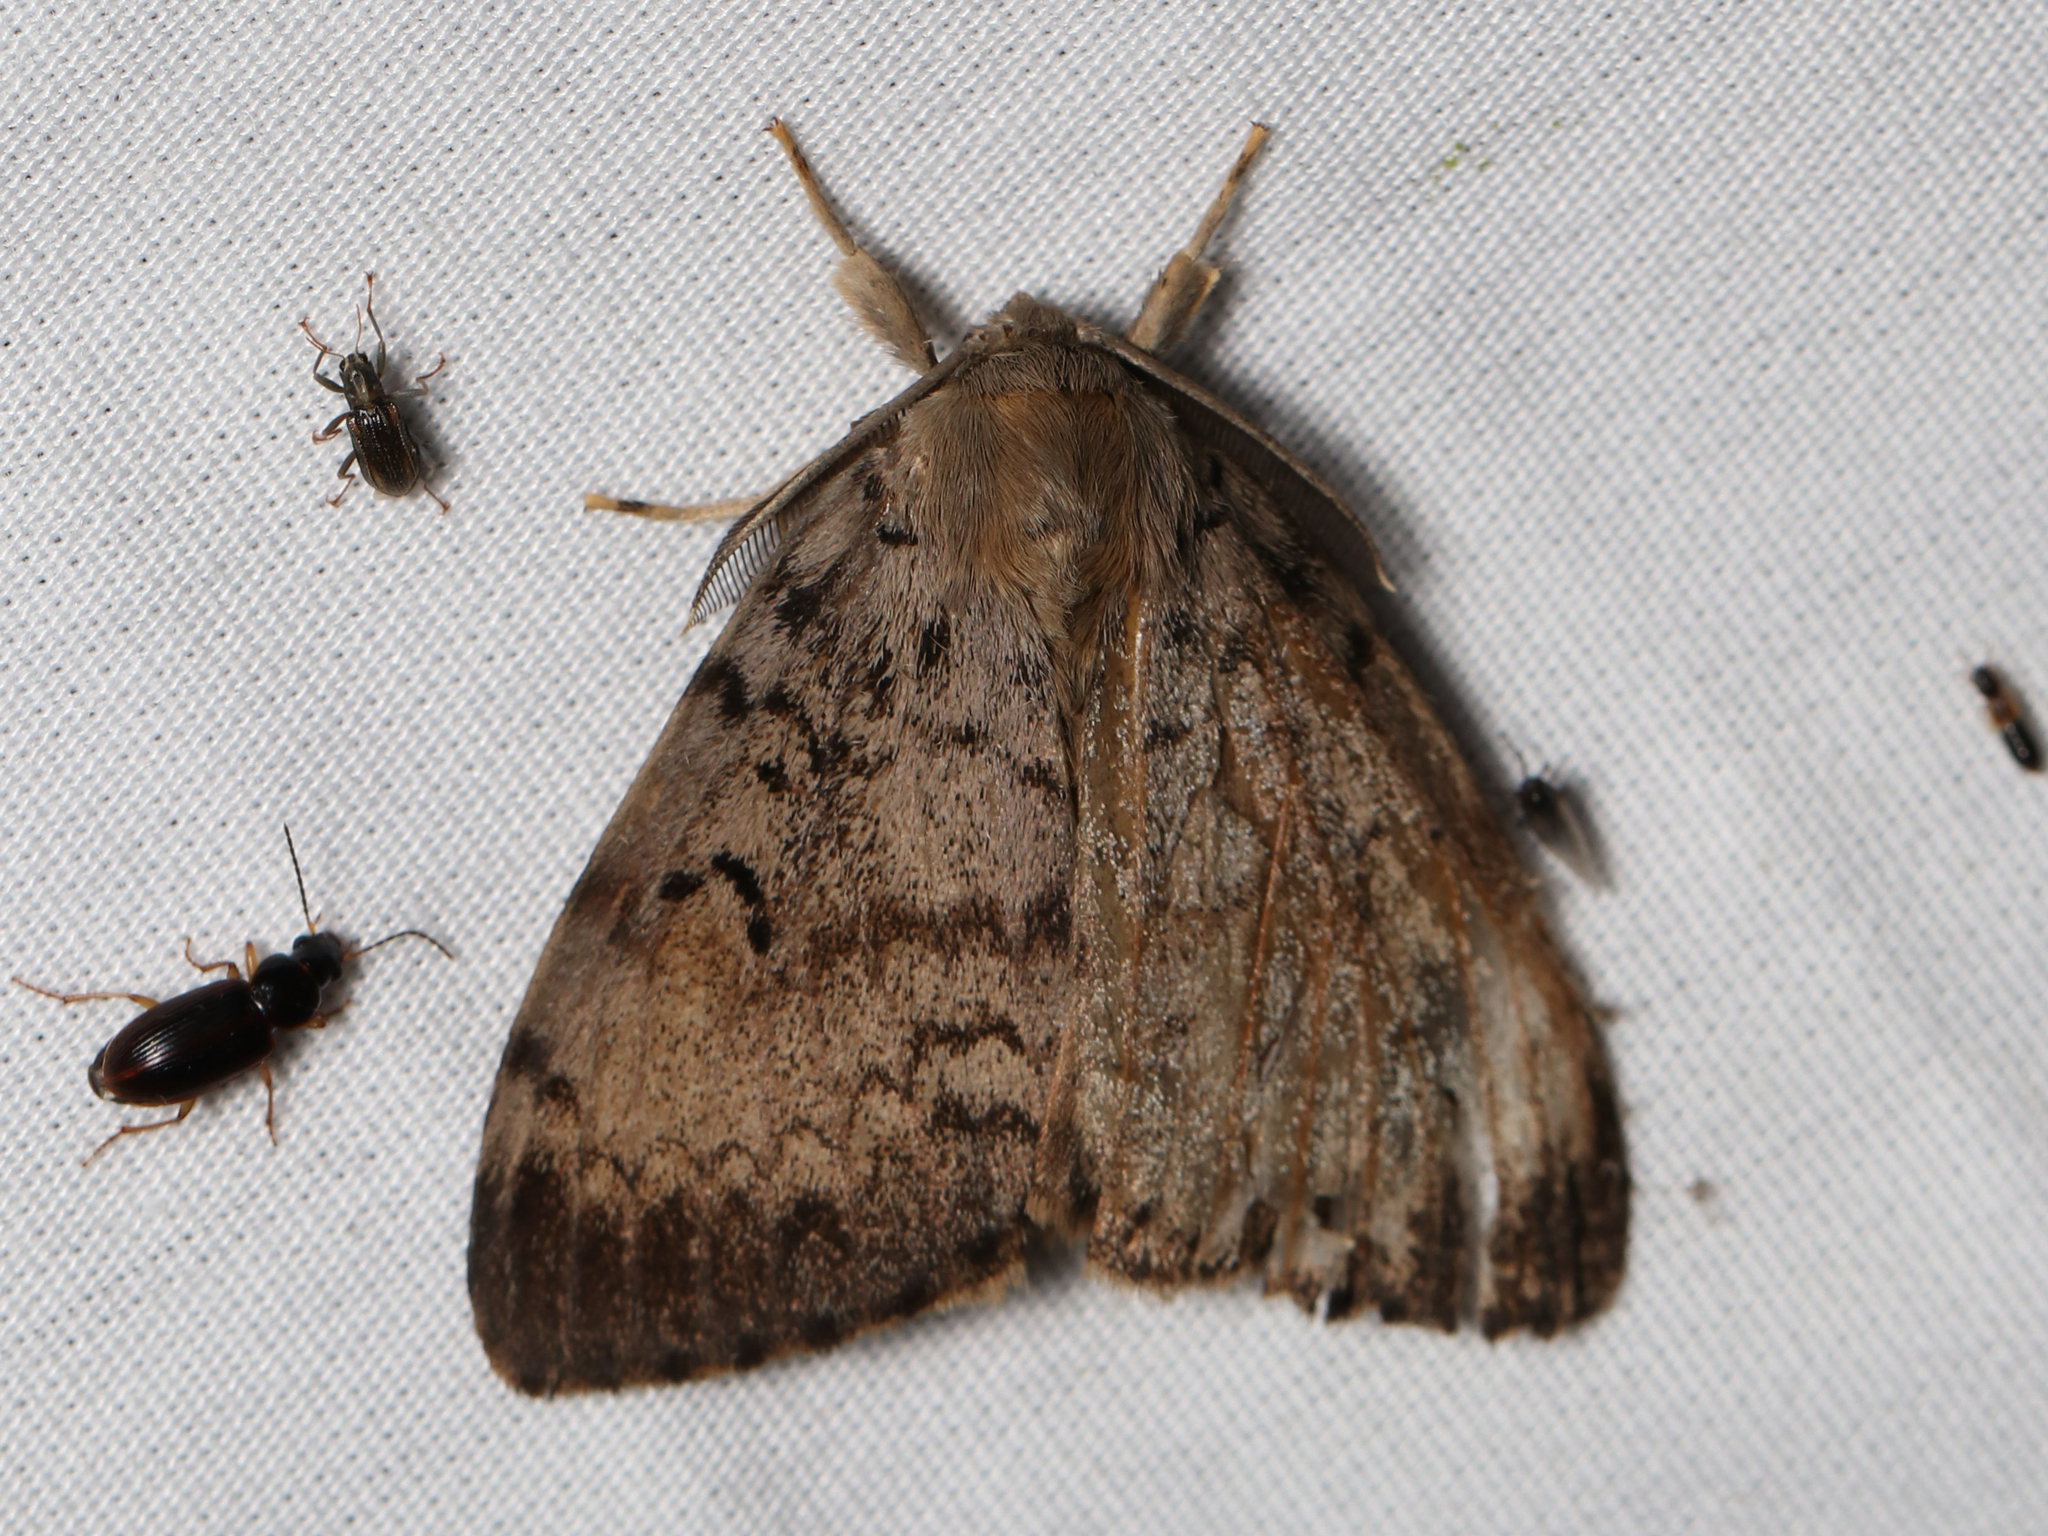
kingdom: Animalia
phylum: Arthropoda
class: Insecta
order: Lepidoptera
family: Erebidae
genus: Lymantria
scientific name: Lymantria dispar
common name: Gypsy moth
